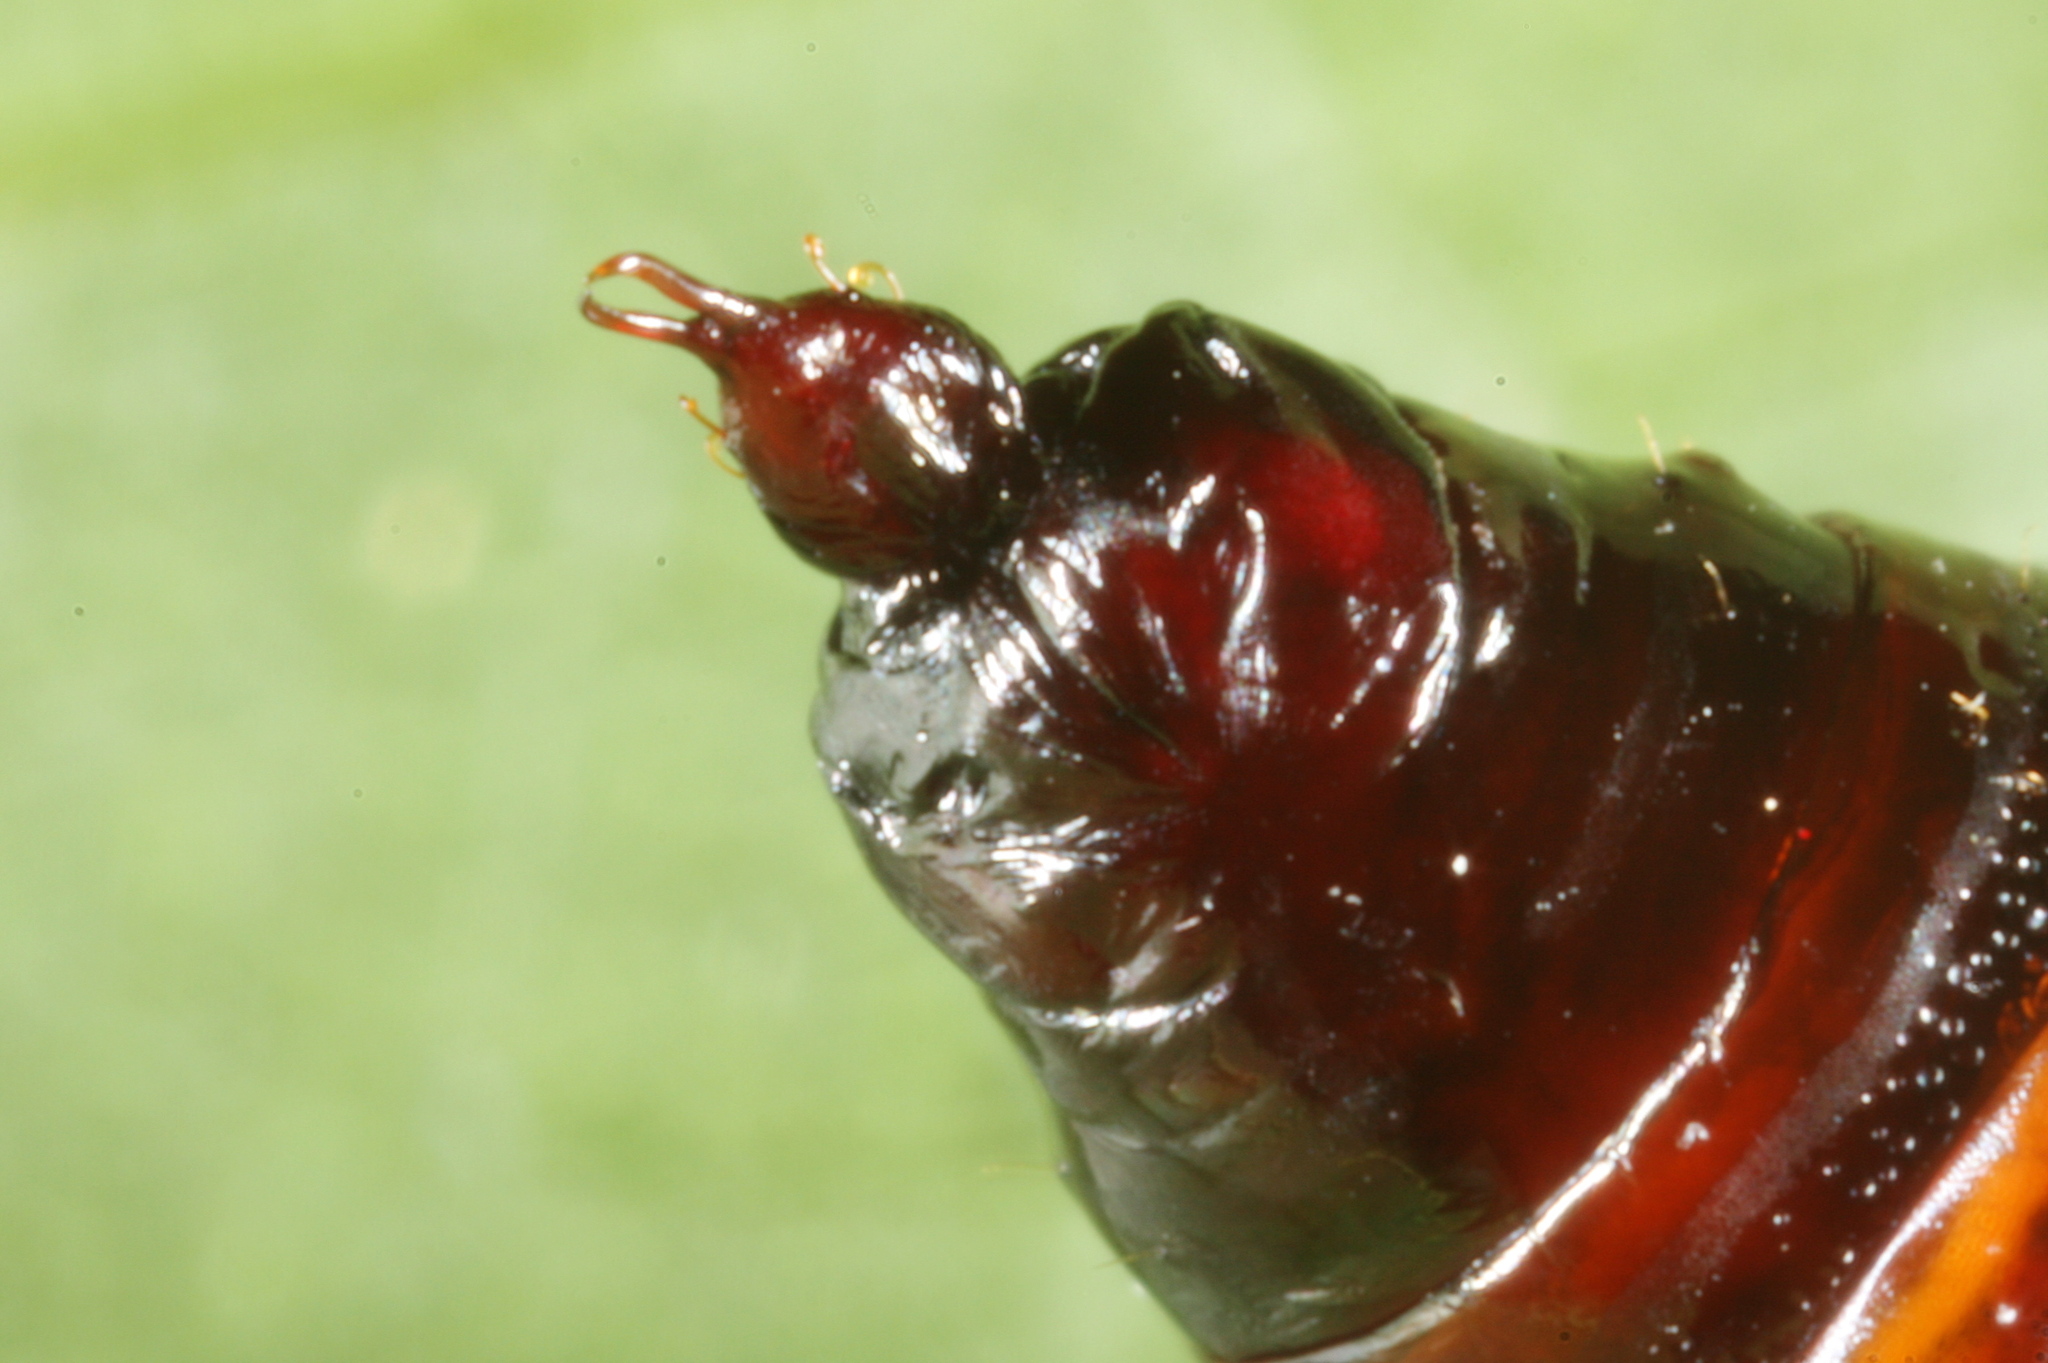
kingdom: Animalia
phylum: Arthropoda
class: Insecta
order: Lepidoptera
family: Geometridae
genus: Mesoleuca
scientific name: Mesoleuca albicillata
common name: Beautiful carpet
